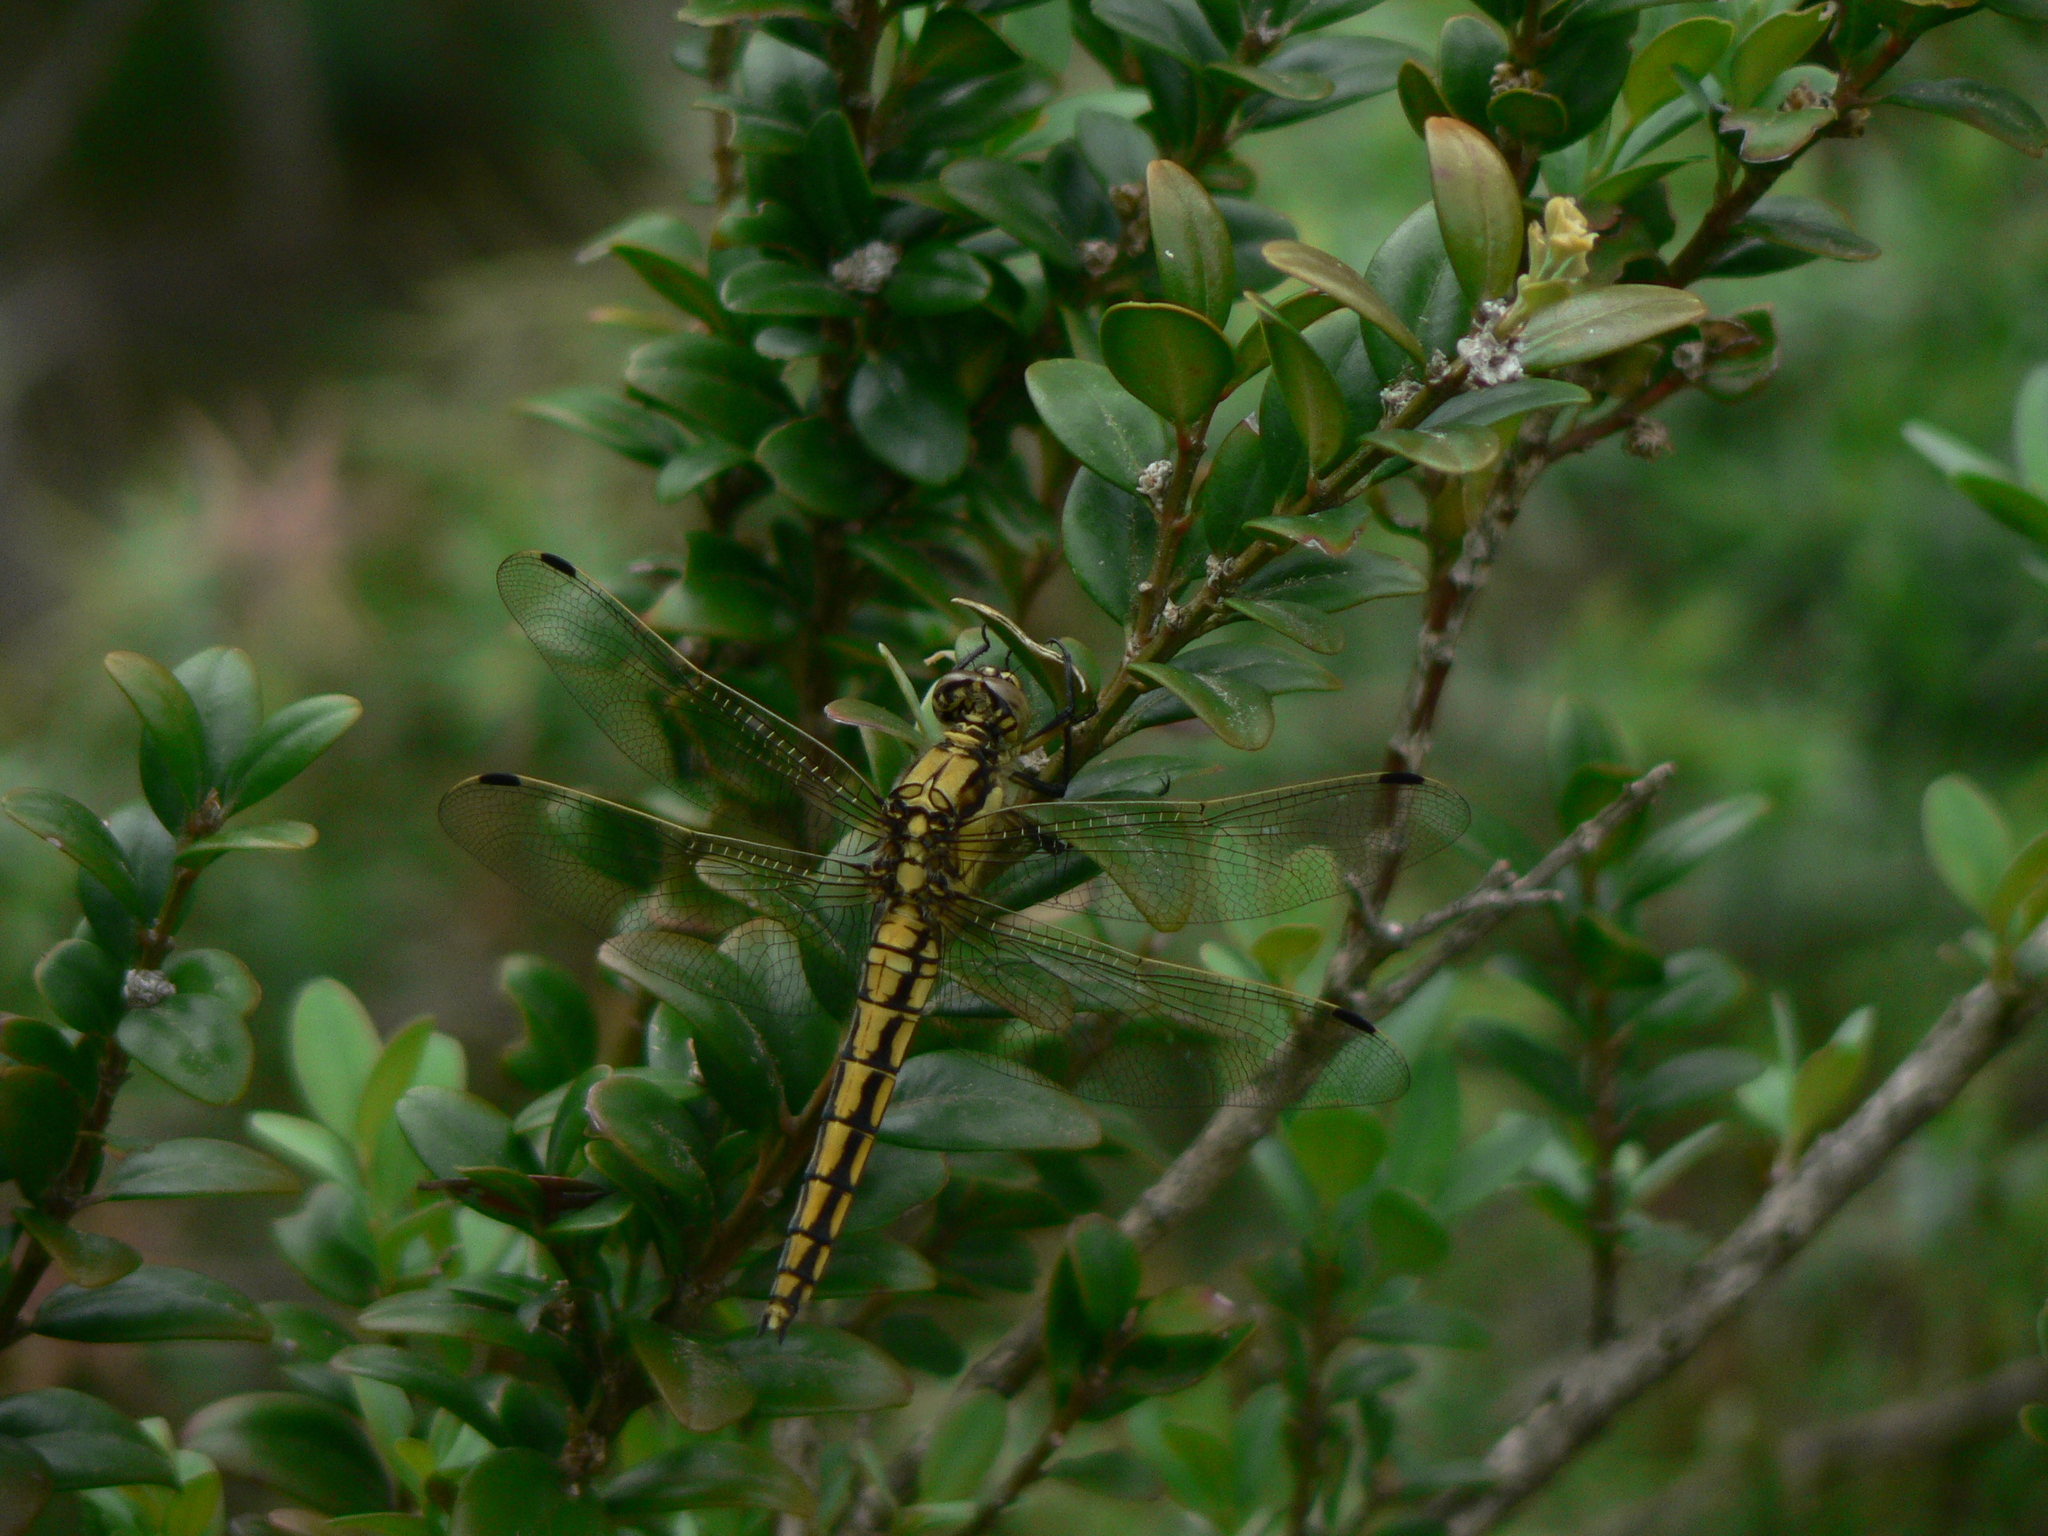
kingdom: Animalia
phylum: Arthropoda
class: Insecta
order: Odonata
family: Libellulidae
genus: Orthetrum
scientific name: Orthetrum cancellatum
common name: Black-tailed skimmer
